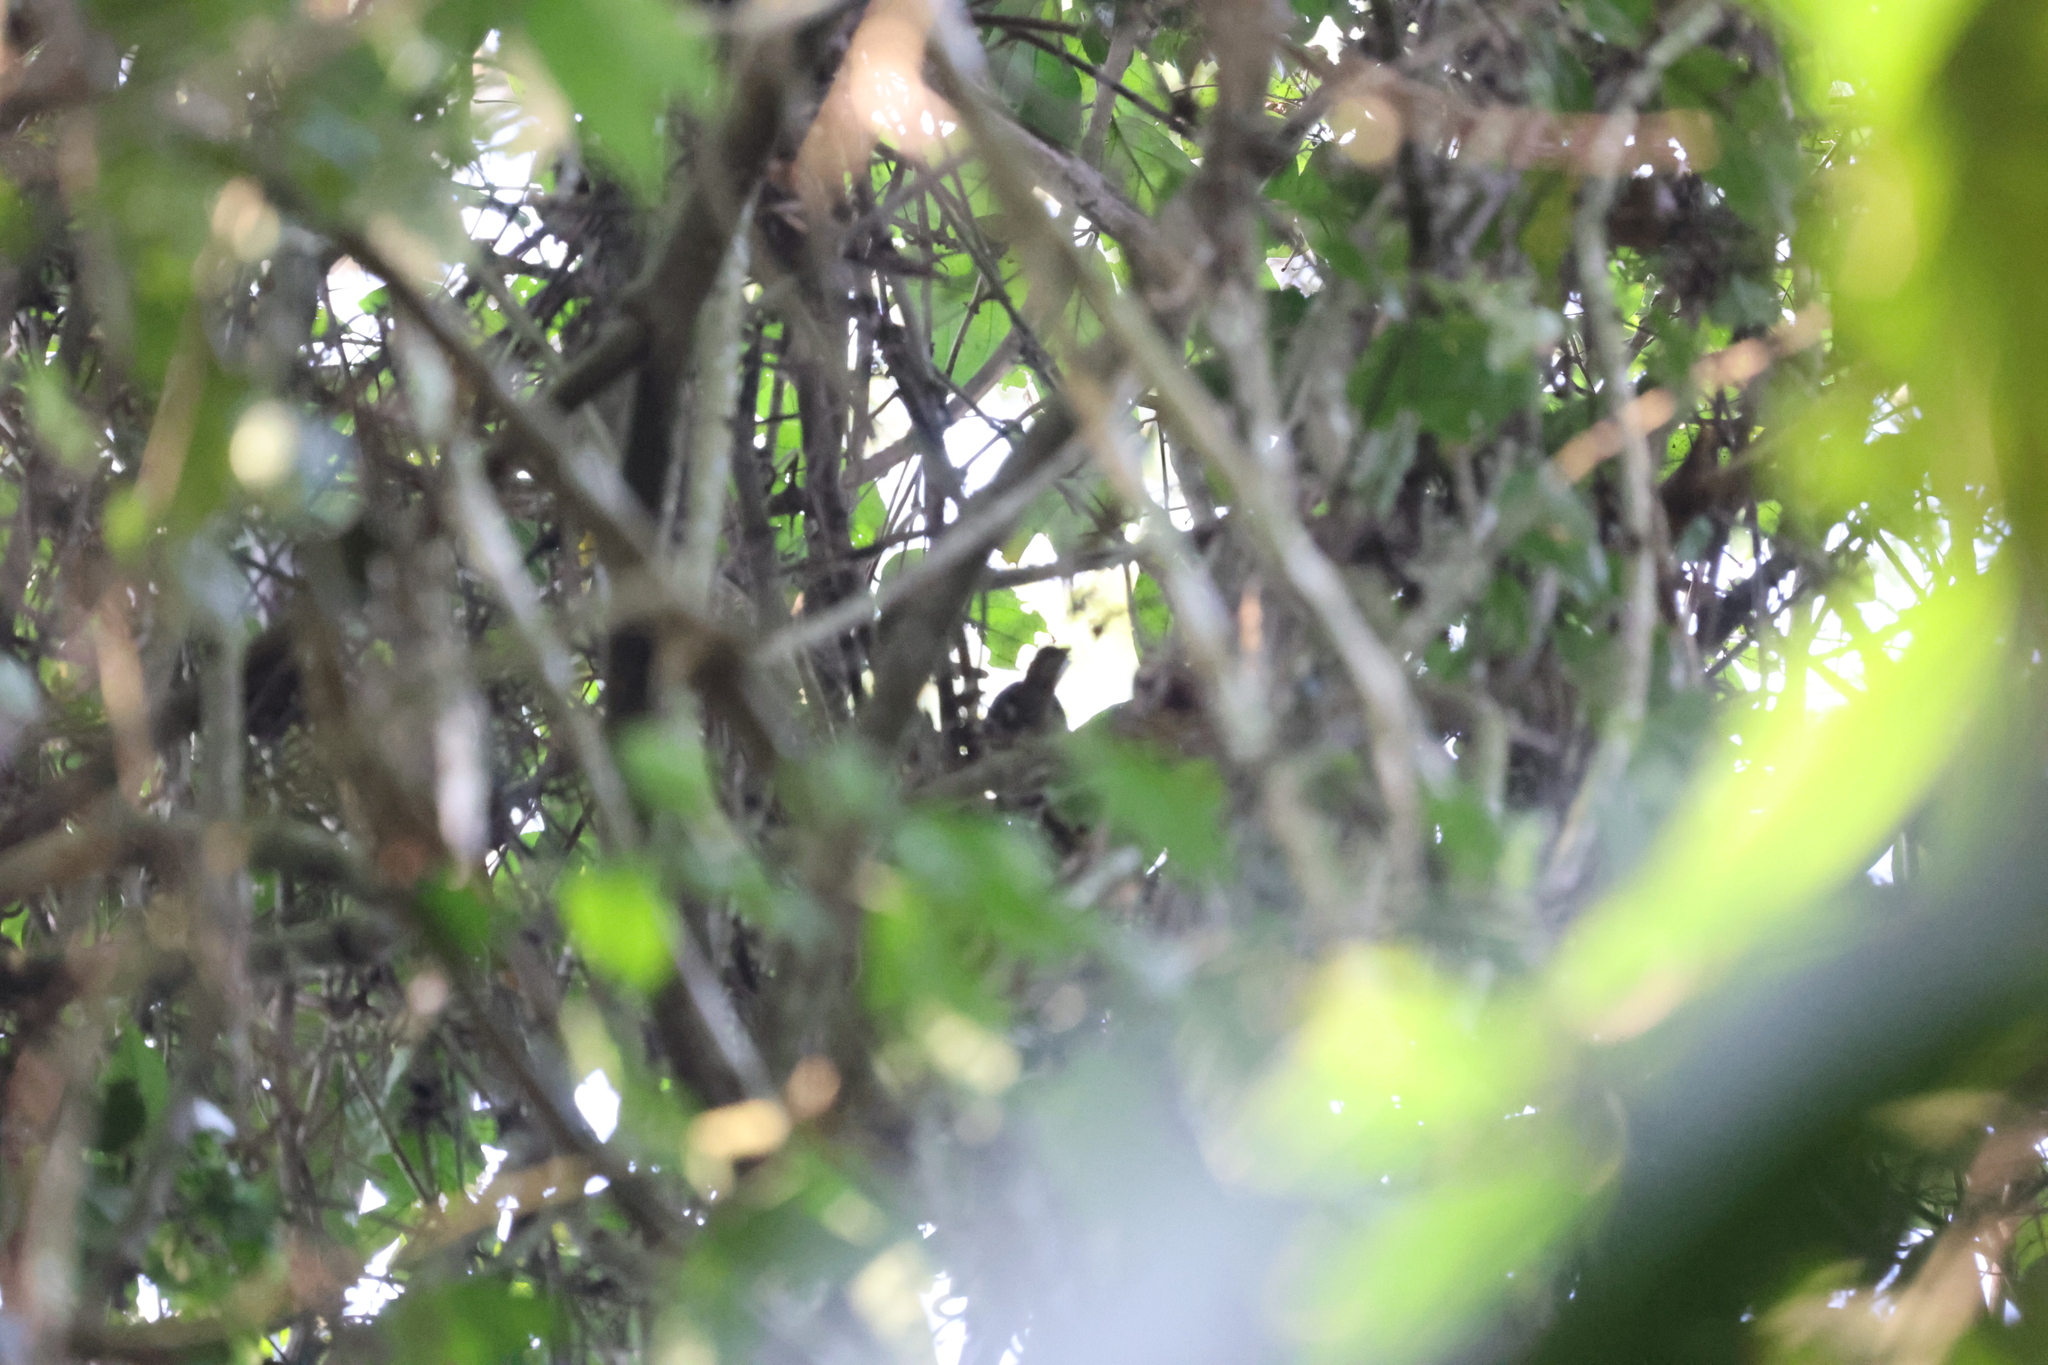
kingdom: Animalia
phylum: Chordata
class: Aves
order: Passeriformes
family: Pellorneidae
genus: Illadopsis
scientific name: Illadopsis fulvescens
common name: Brown illadopsis
